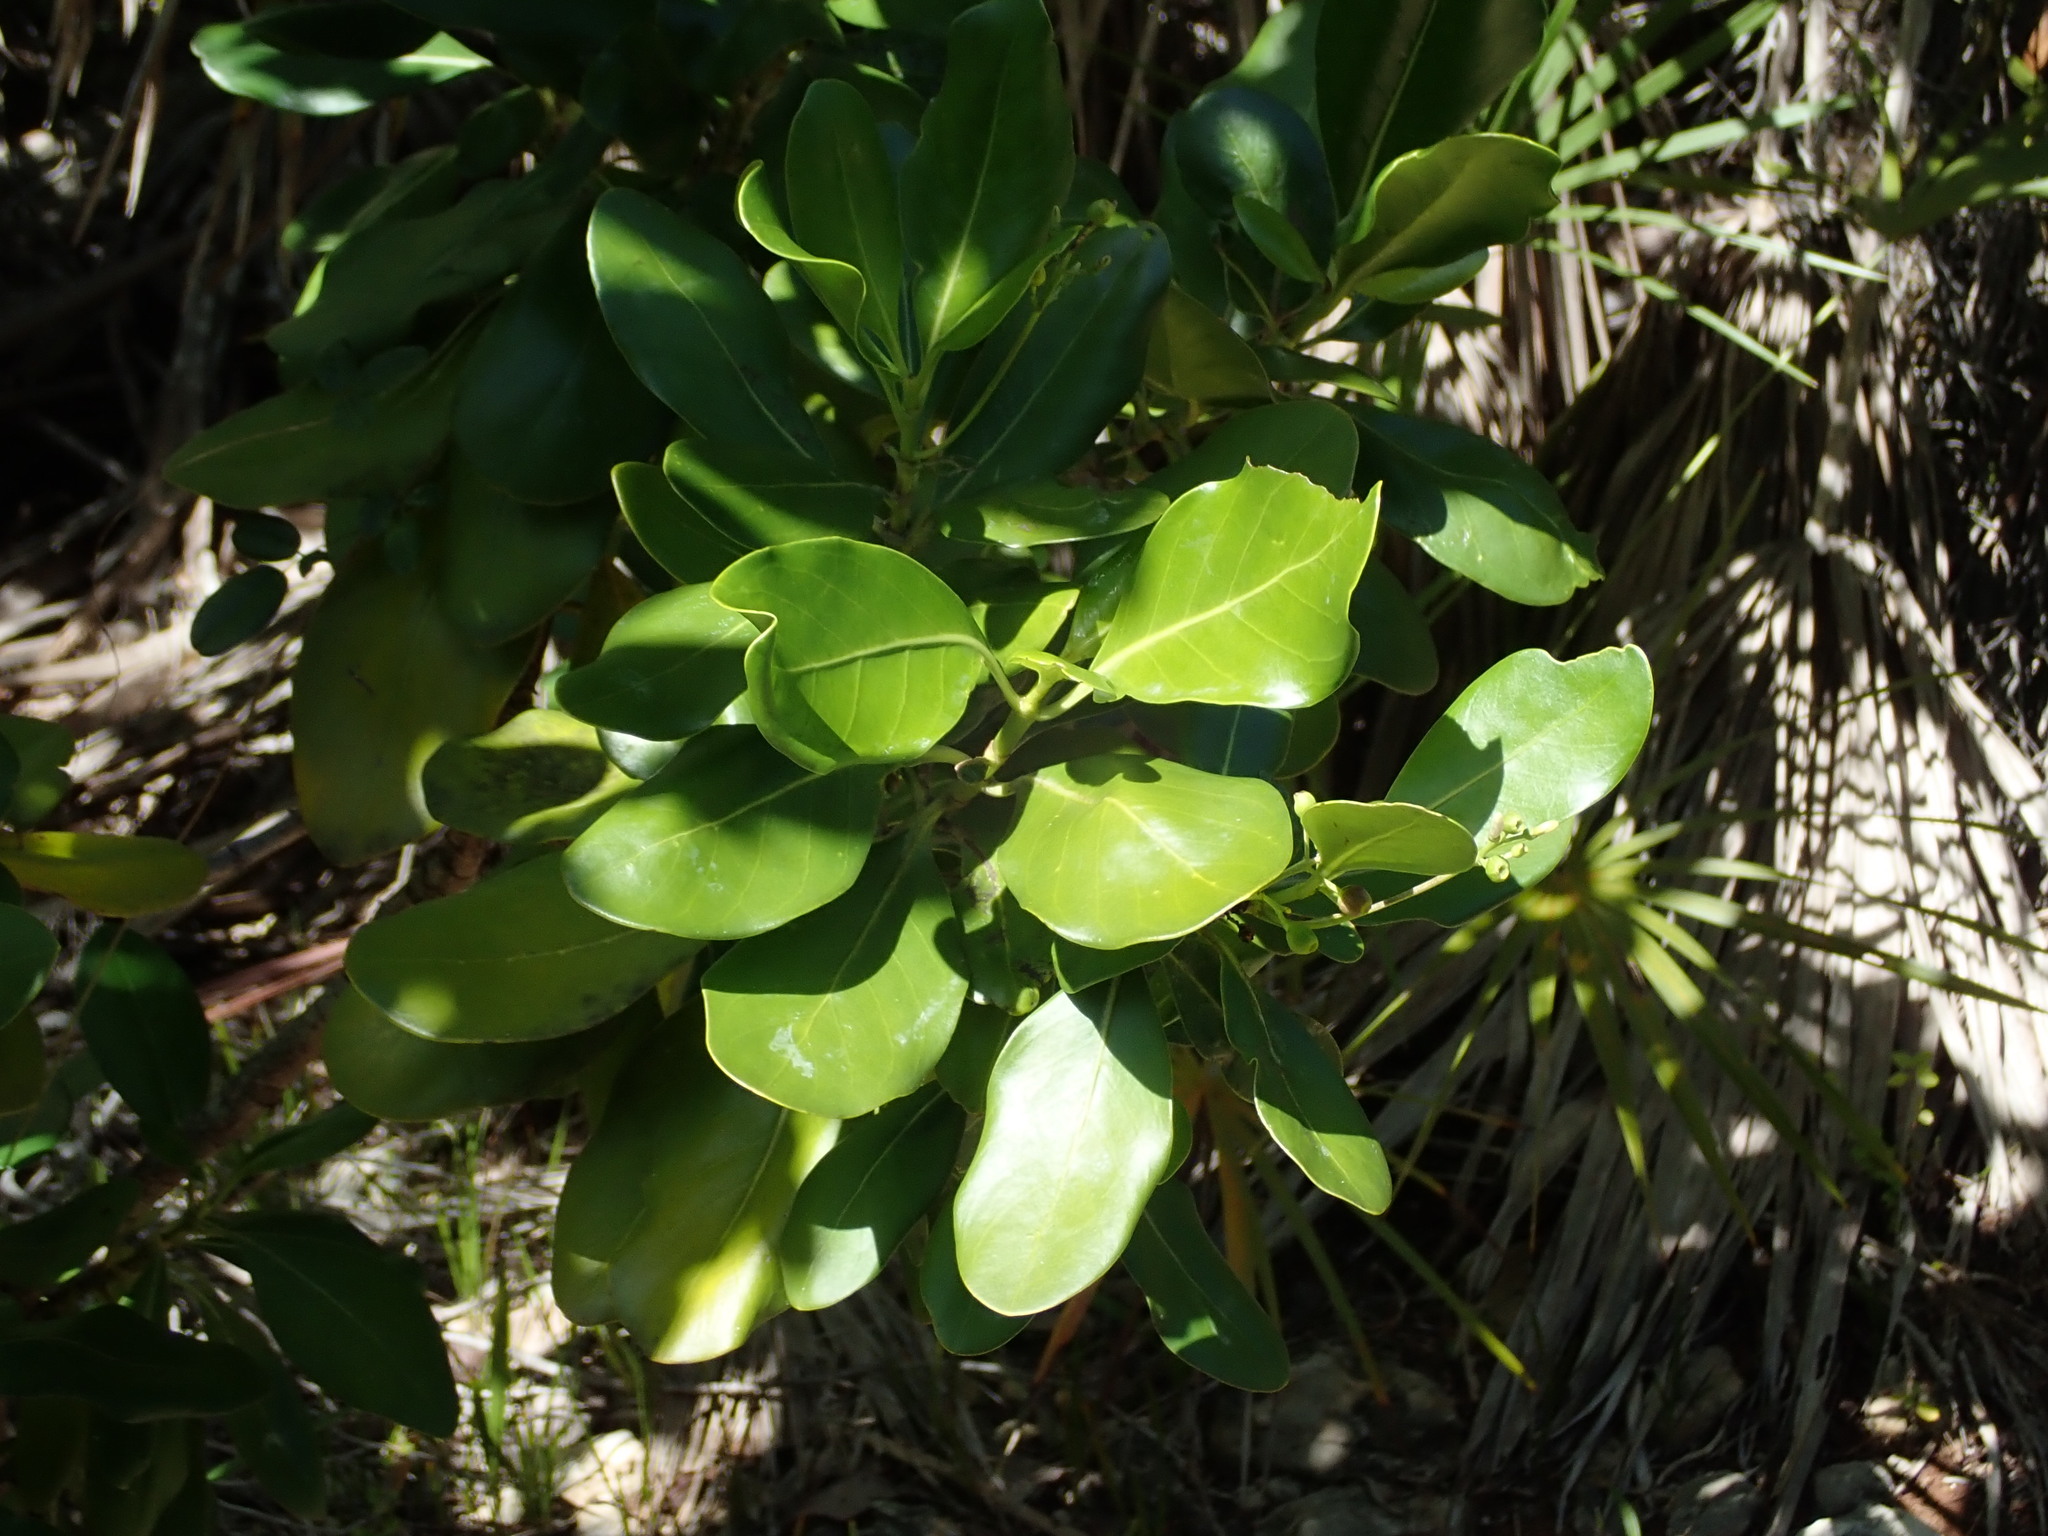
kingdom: Plantae
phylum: Tracheophyta
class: Magnoliopsida
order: Gentianales
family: Rubiaceae
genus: Erithalis
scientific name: Erithalis fruticosa
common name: Candlewood
